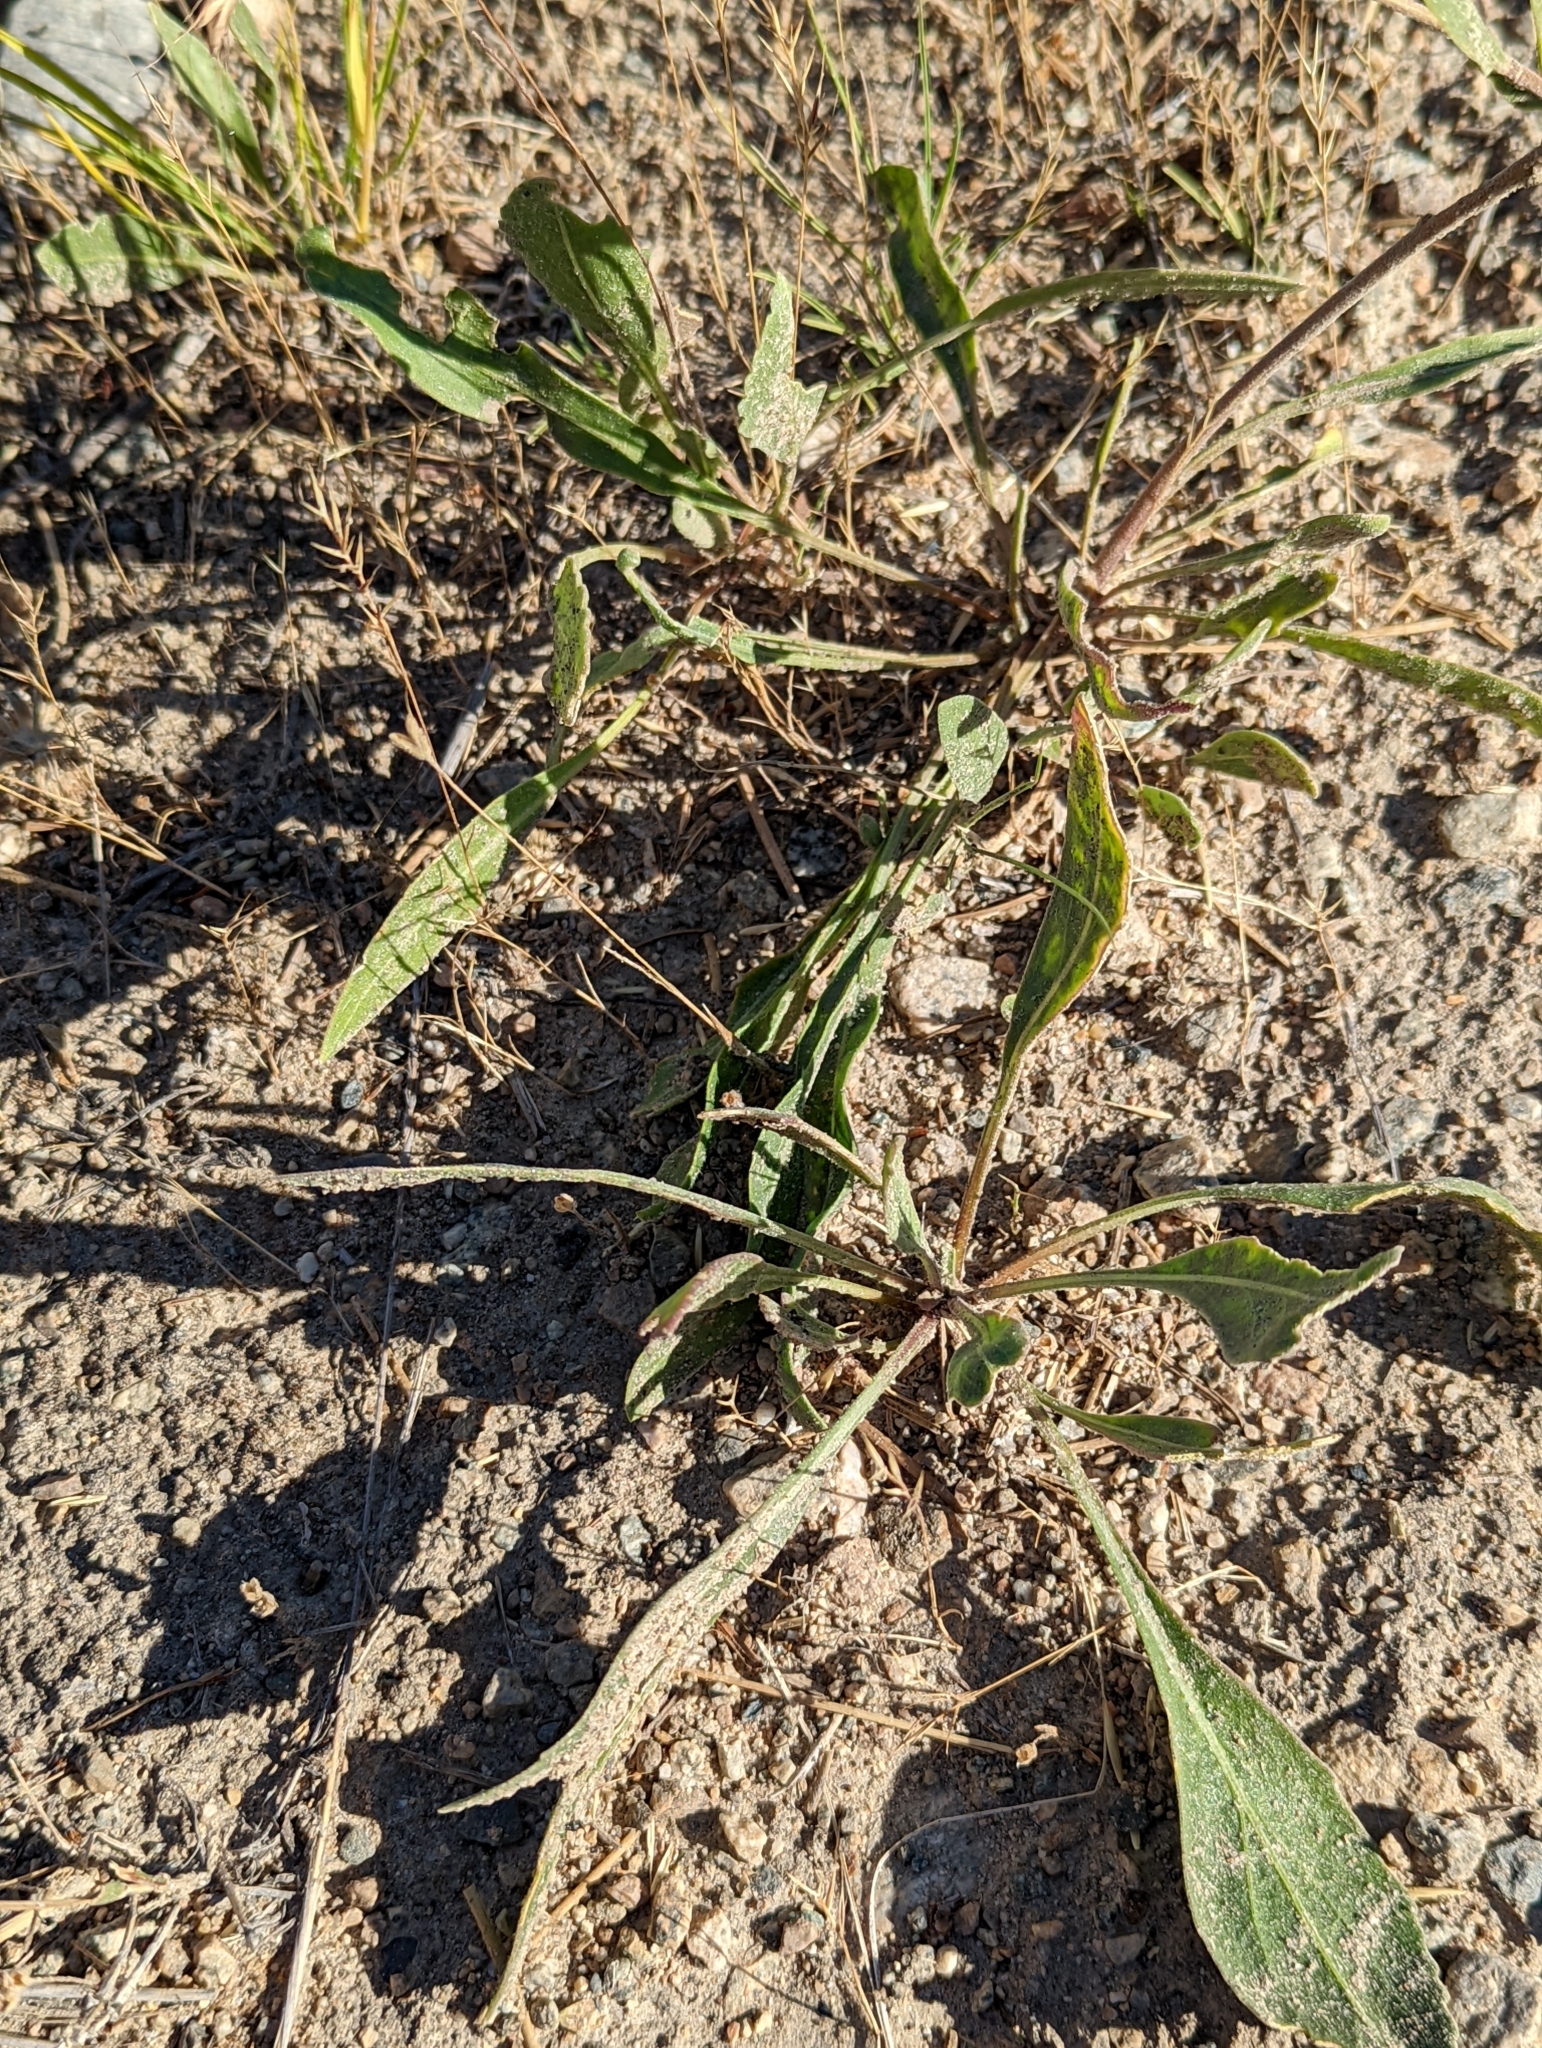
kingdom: Plantae
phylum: Tracheophyta
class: Magnoliopsida
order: Asterales
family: Asteraceae
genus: Gaillardia
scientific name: Gaillardia aristata
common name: Blanket-flower
